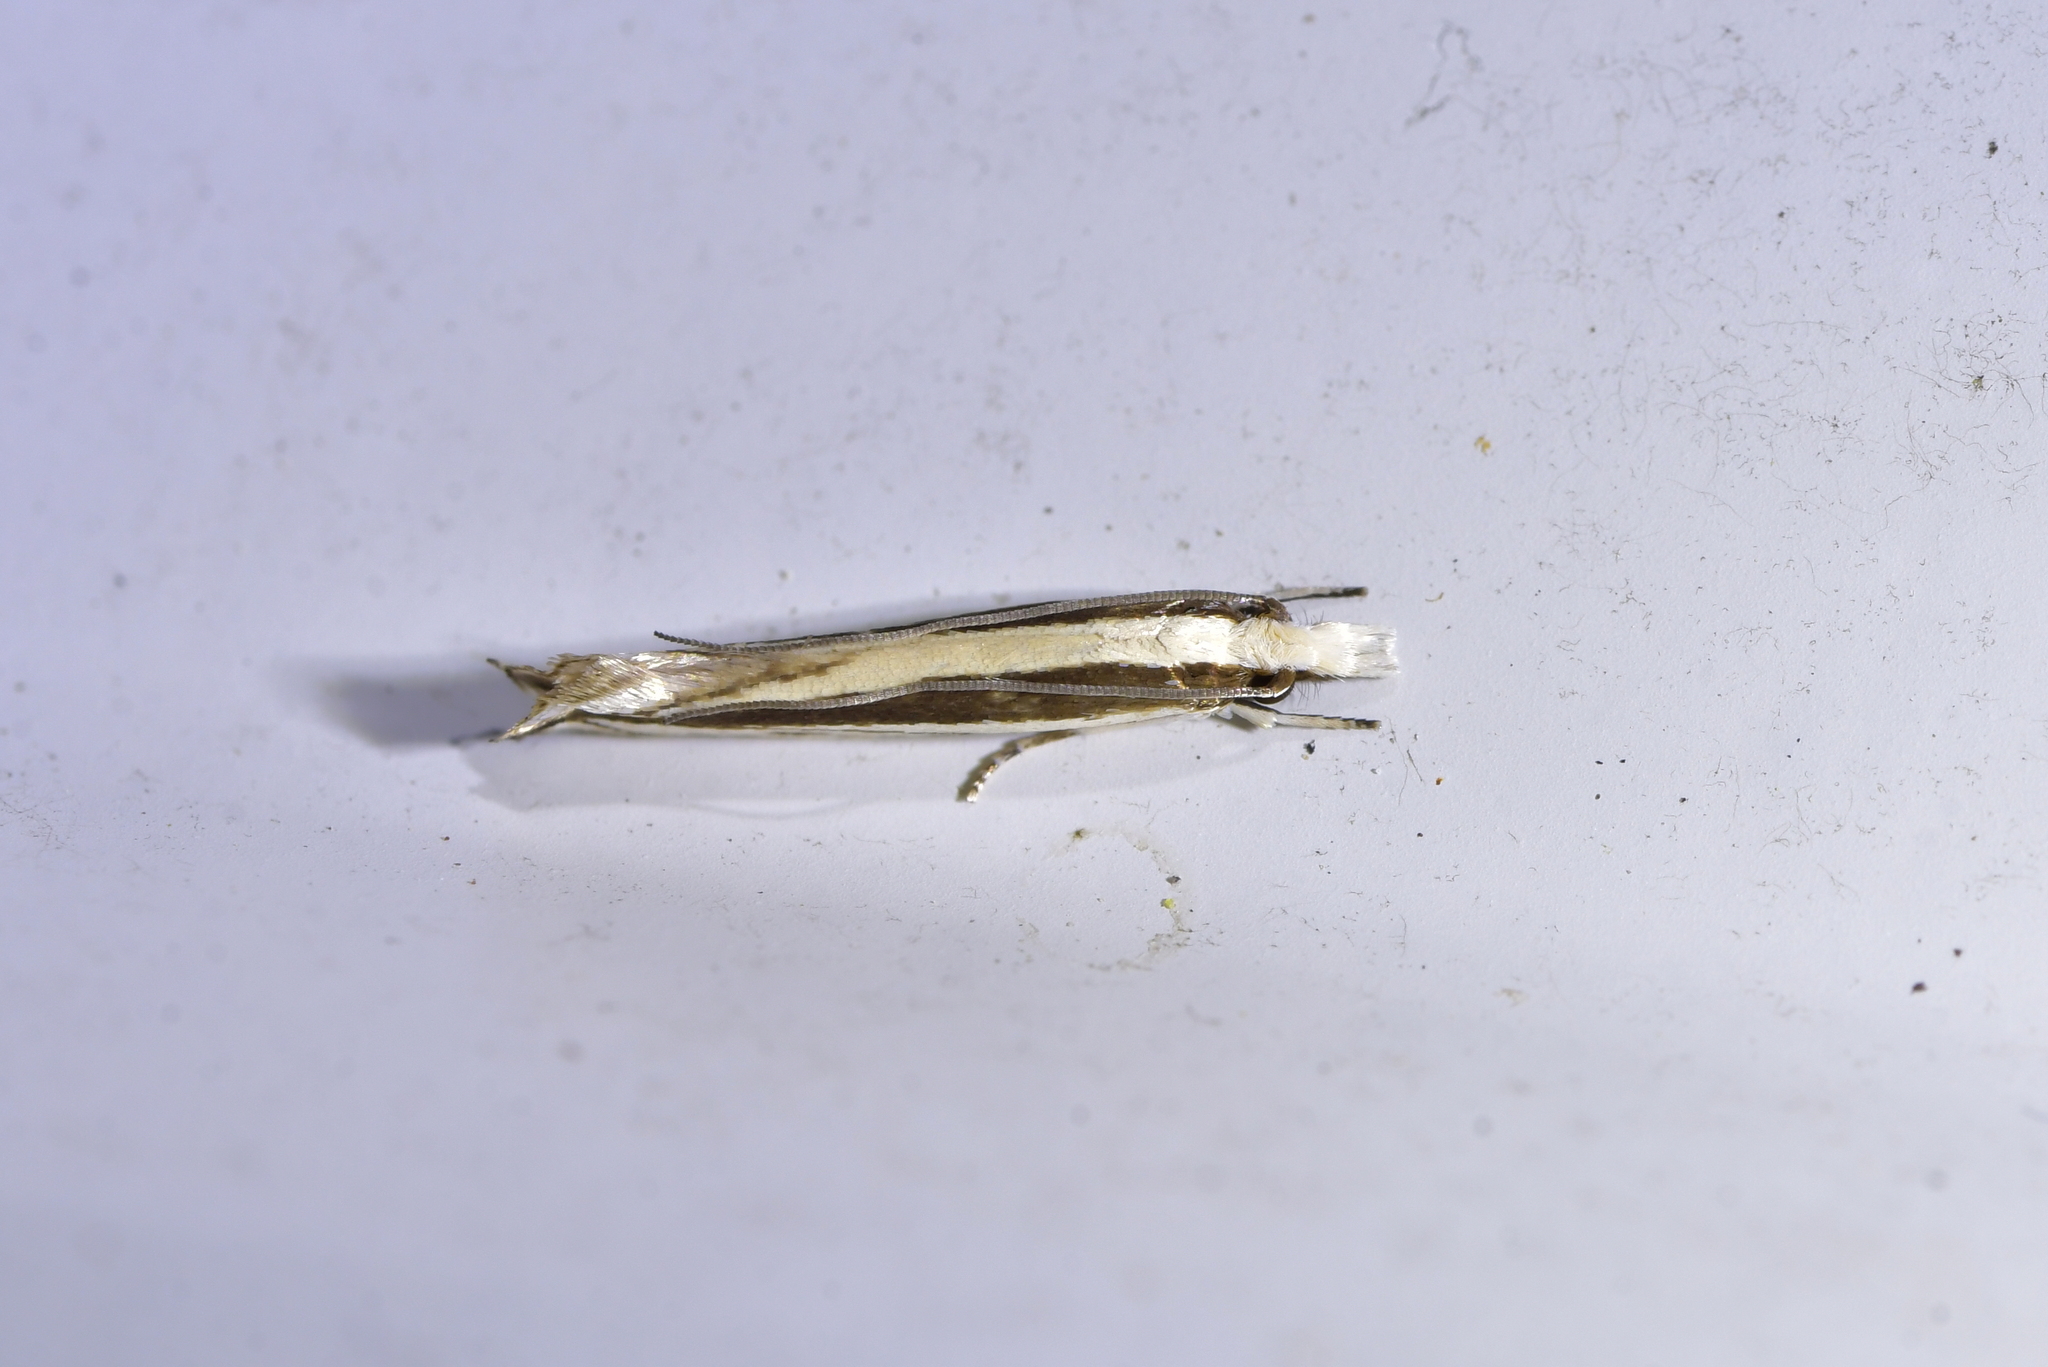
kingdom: Animalia
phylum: Arthropoda
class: Insecta
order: Lepidoptera
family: Tineidae
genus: Erechthias
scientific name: Erechthias stilbella
